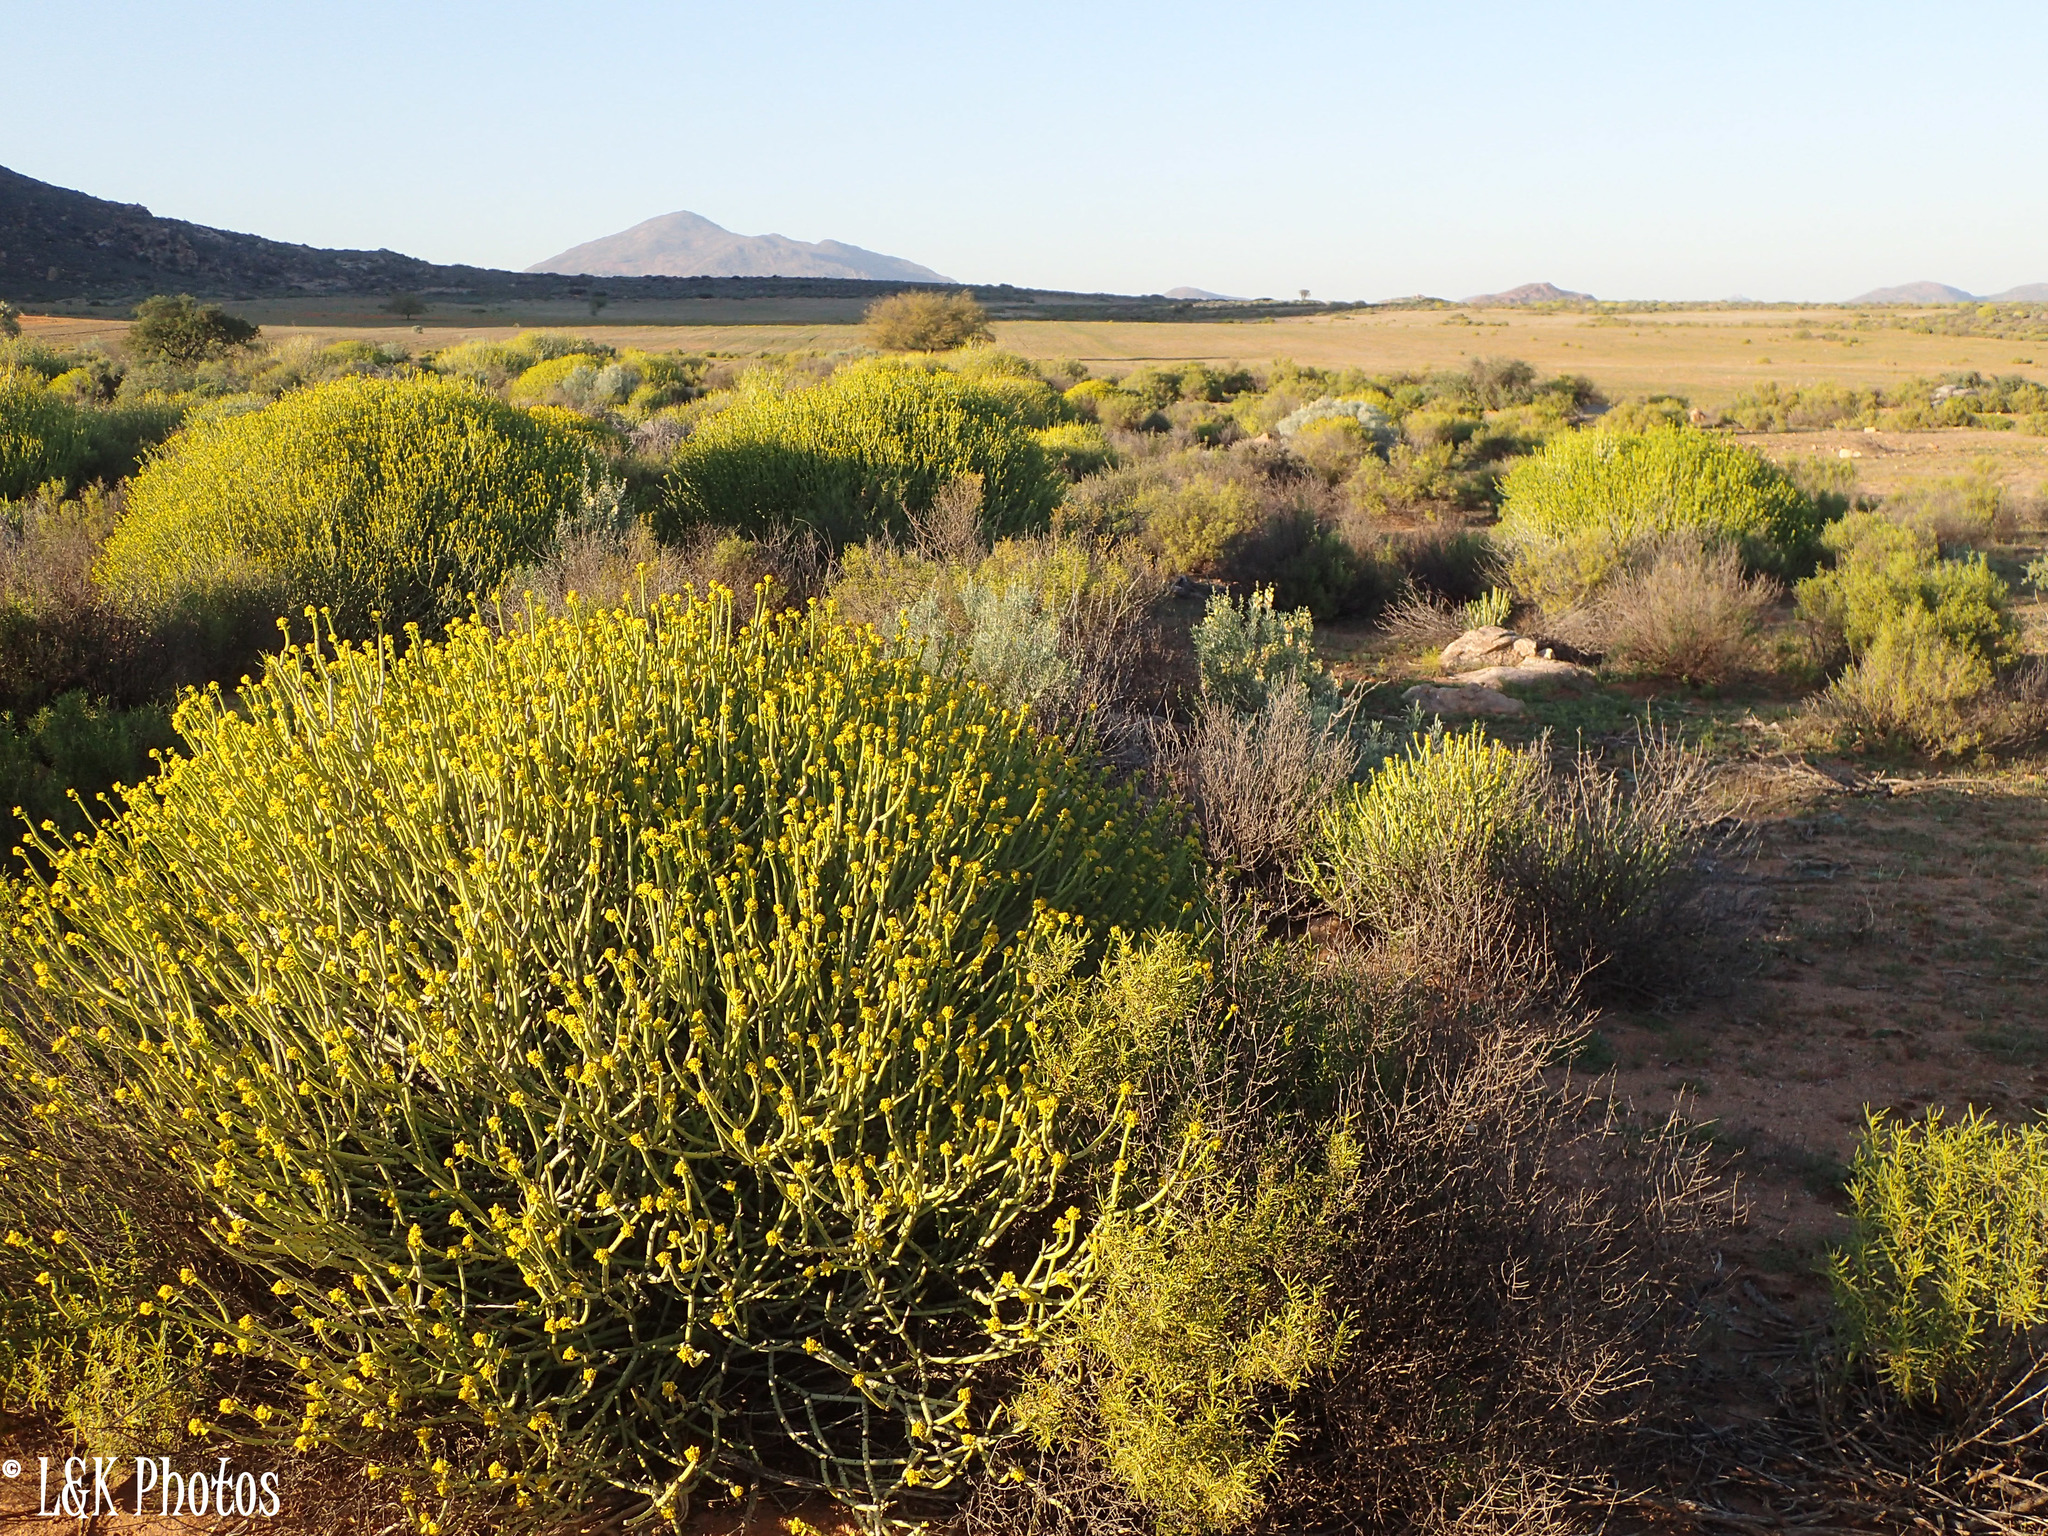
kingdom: Plantae
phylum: Tracheophyta
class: Magnoliopsida
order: Malpighiales
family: Euphorbiaceae
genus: Euphorbia
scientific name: Euphorbia mauritanica
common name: Jackal's-food
